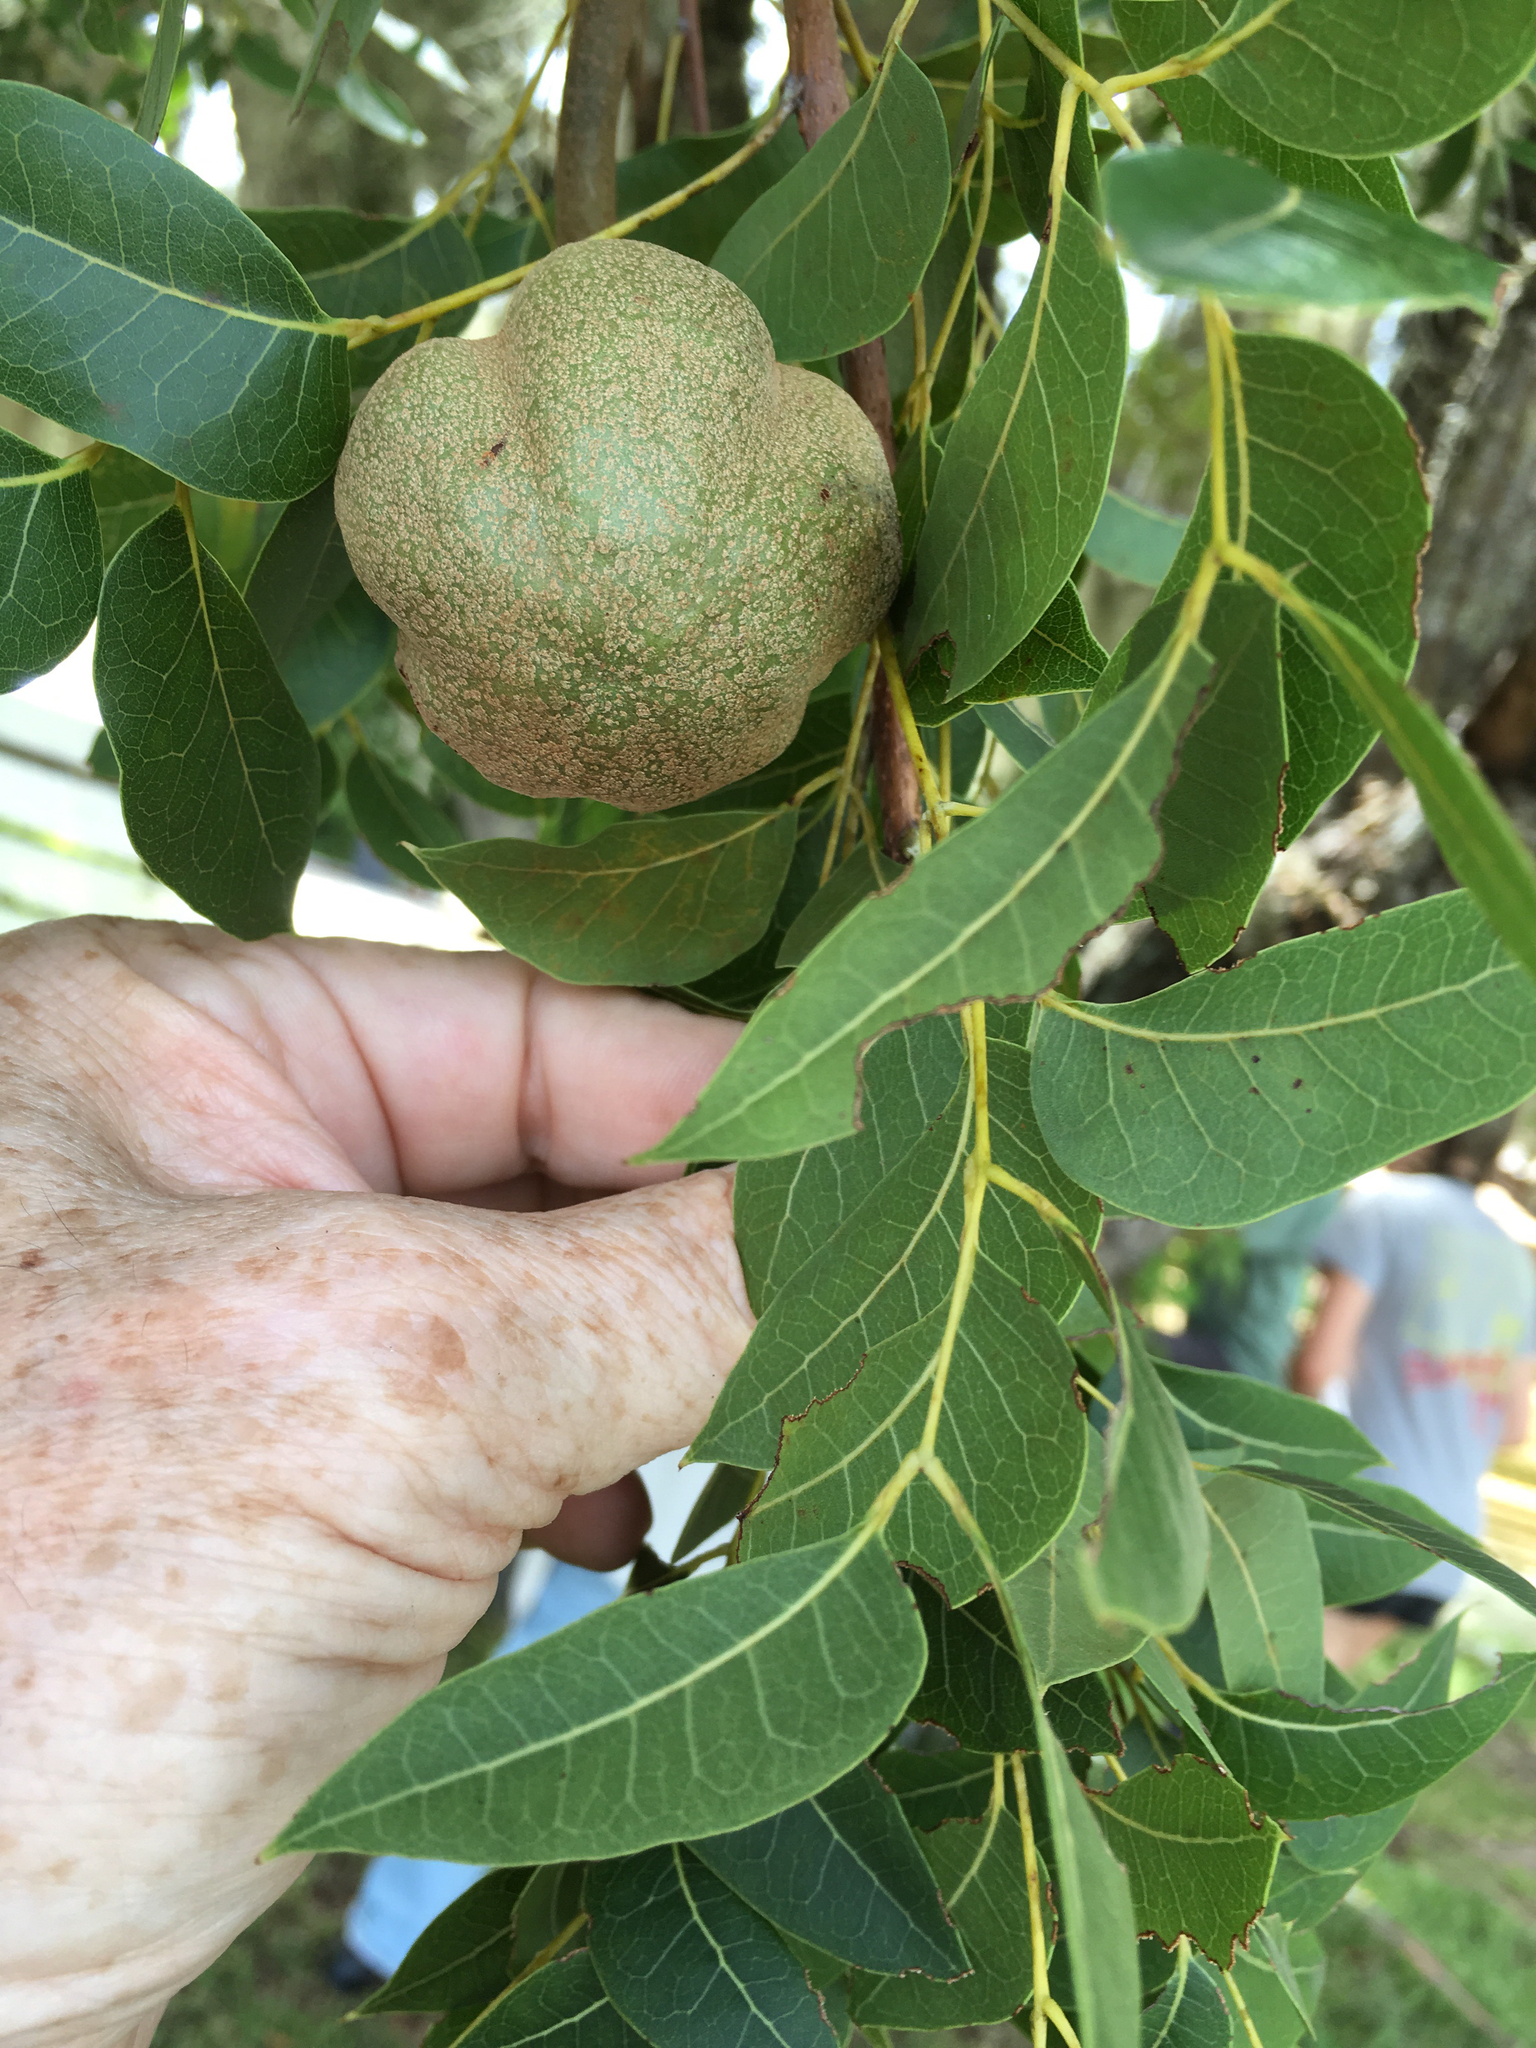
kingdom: Plantae
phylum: Tracheophyta
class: Magnoliopsida
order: Sapindales
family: Meliaceae
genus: Swietenia
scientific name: Swietenia mahagoni
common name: West indian mahogany
